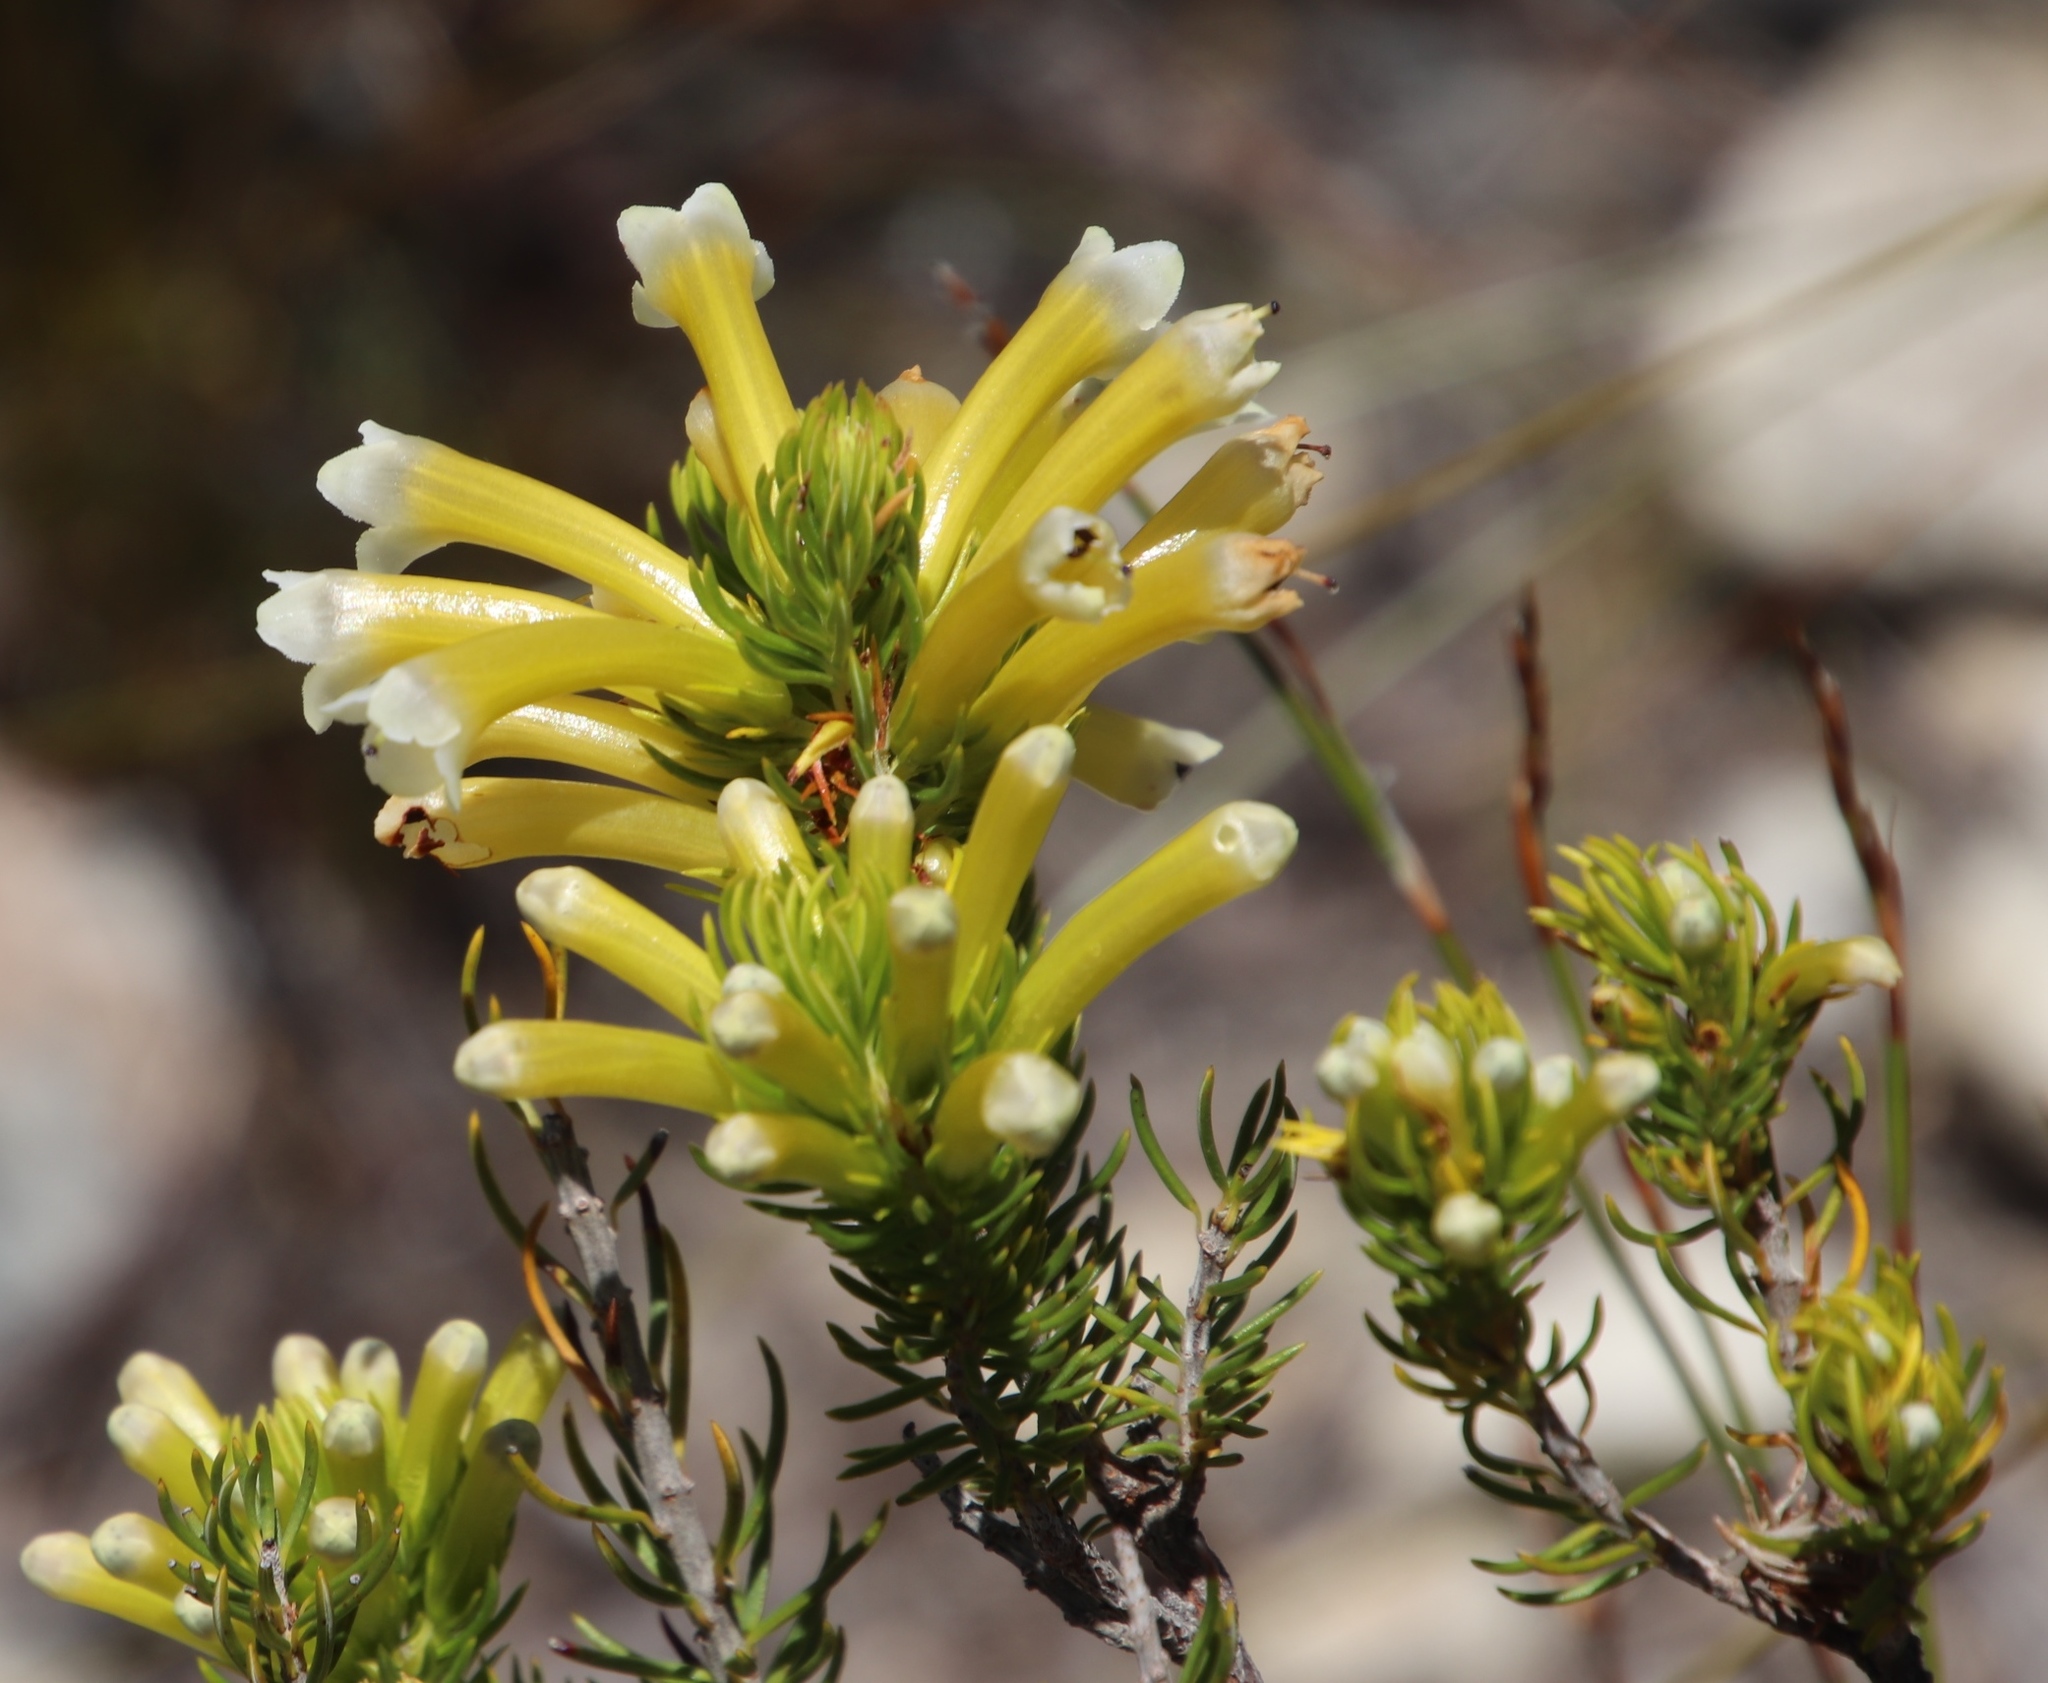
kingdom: Plantae
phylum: Tracheophyta
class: Magnoliopsida
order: Ericales
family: Ericaceae
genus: Erica
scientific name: Erica pinea
